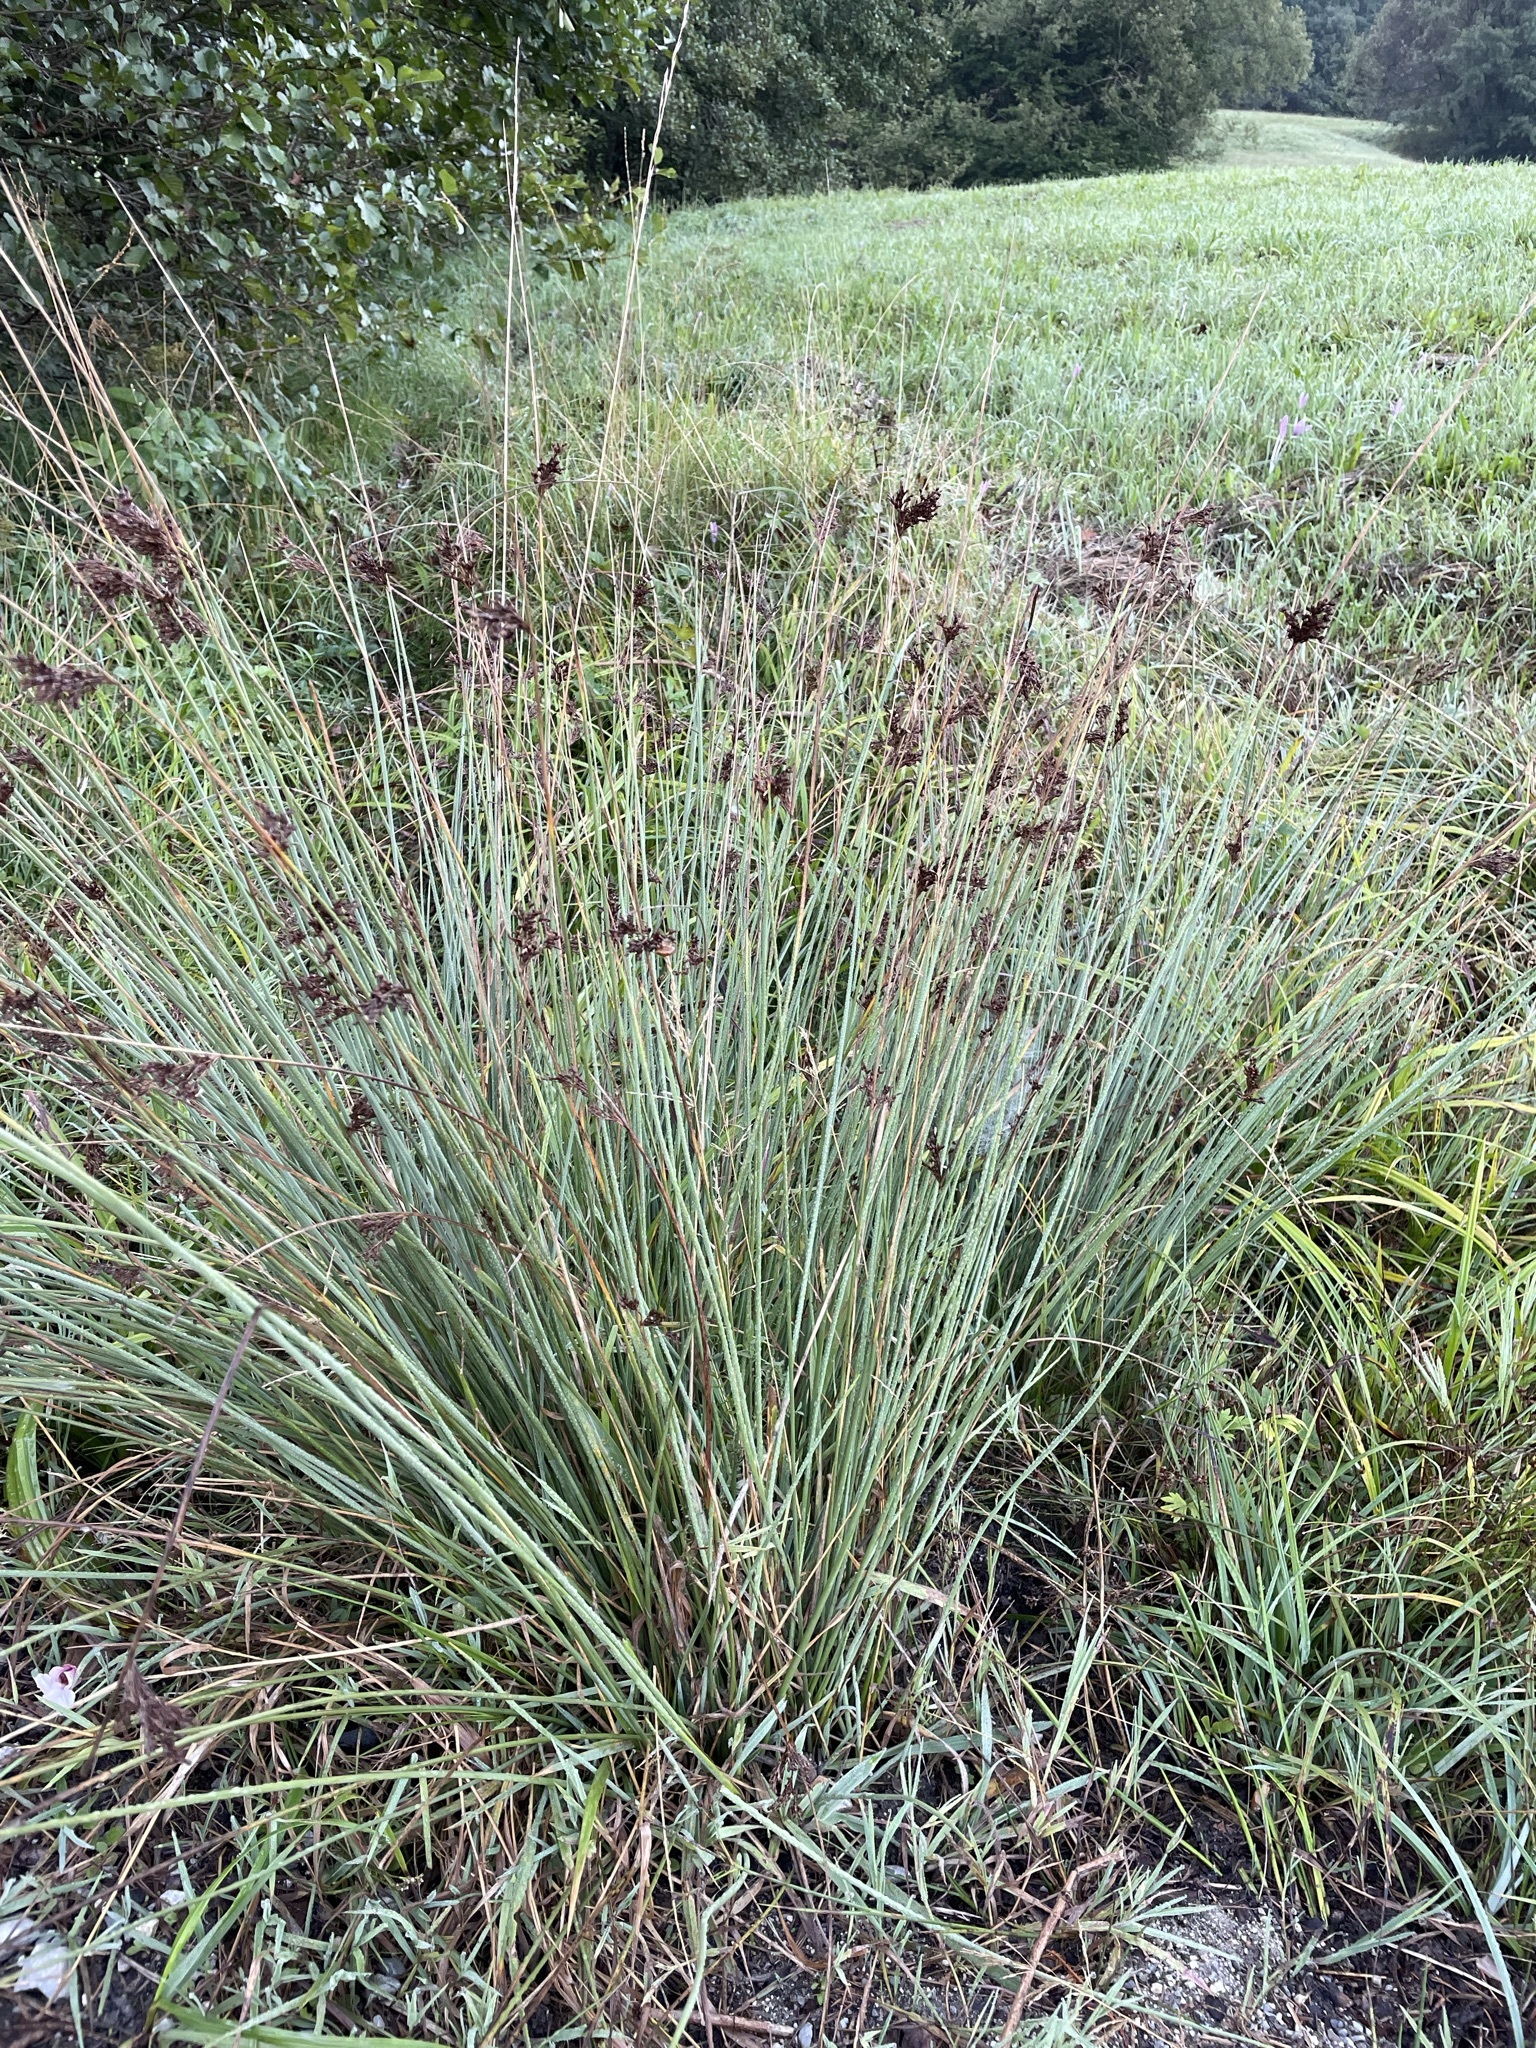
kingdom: Plantae
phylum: Tracheophyta
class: Liliopsida
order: Poales
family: Juncaceae
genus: Juncus
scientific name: Juncus inflexus
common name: Hard rush
